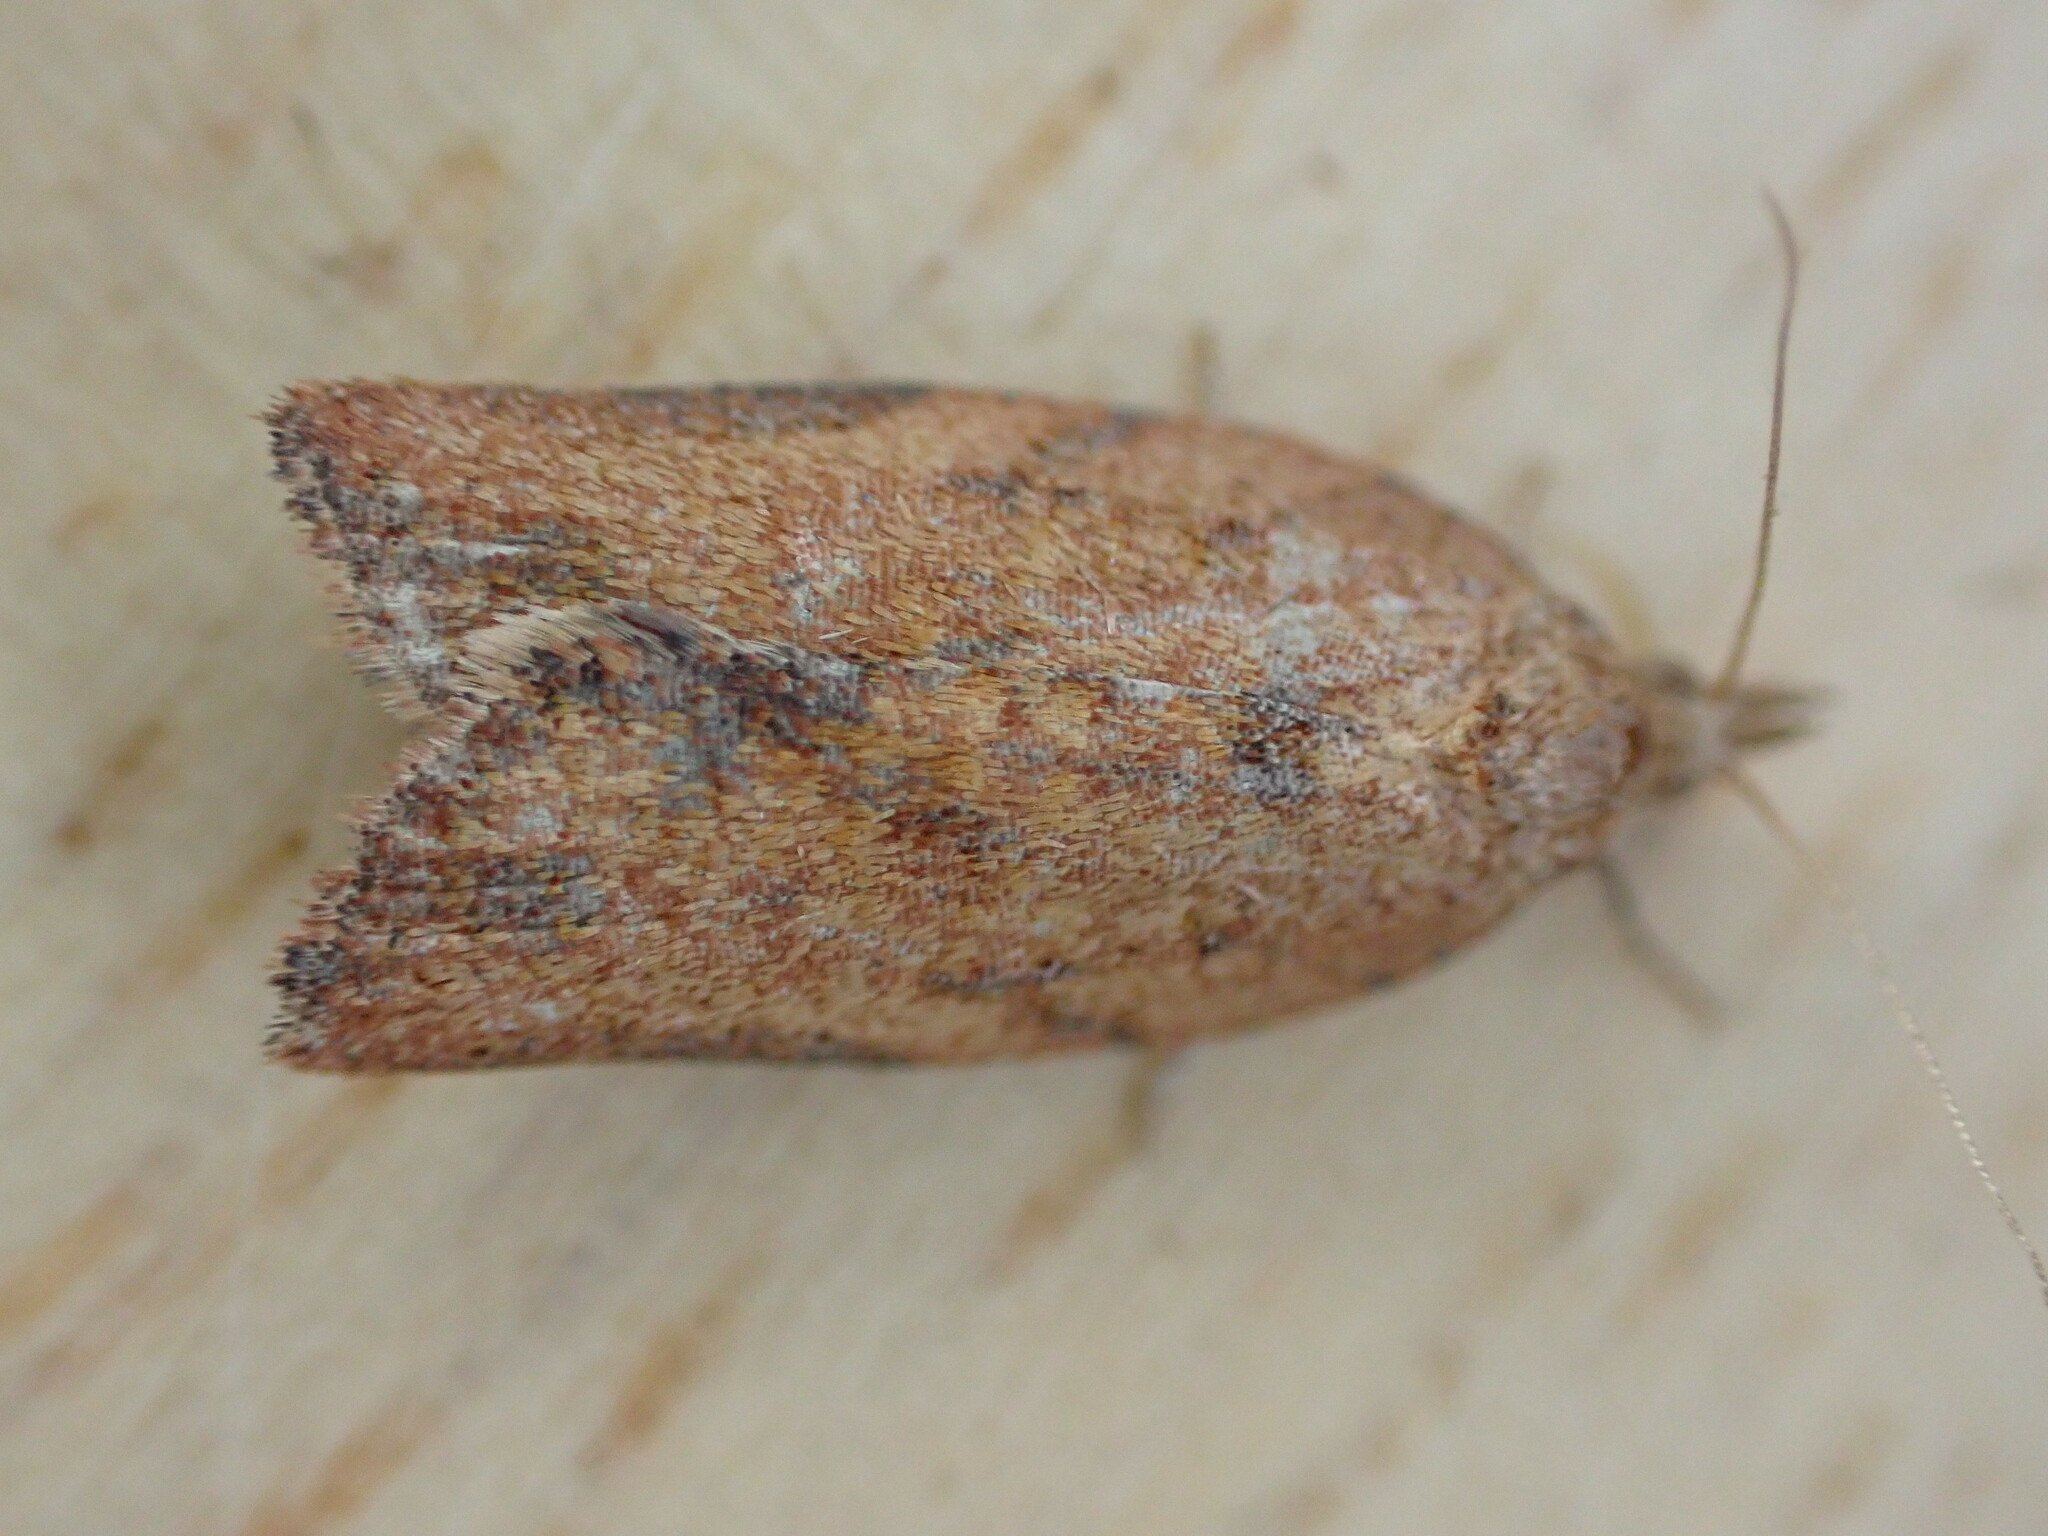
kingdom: Animalia
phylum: Arthropoda
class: Insecta
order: Lepidoptera
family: Tortricidae
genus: Epiphyas
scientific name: Epiphyas postvittana
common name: Light brown apple moth
